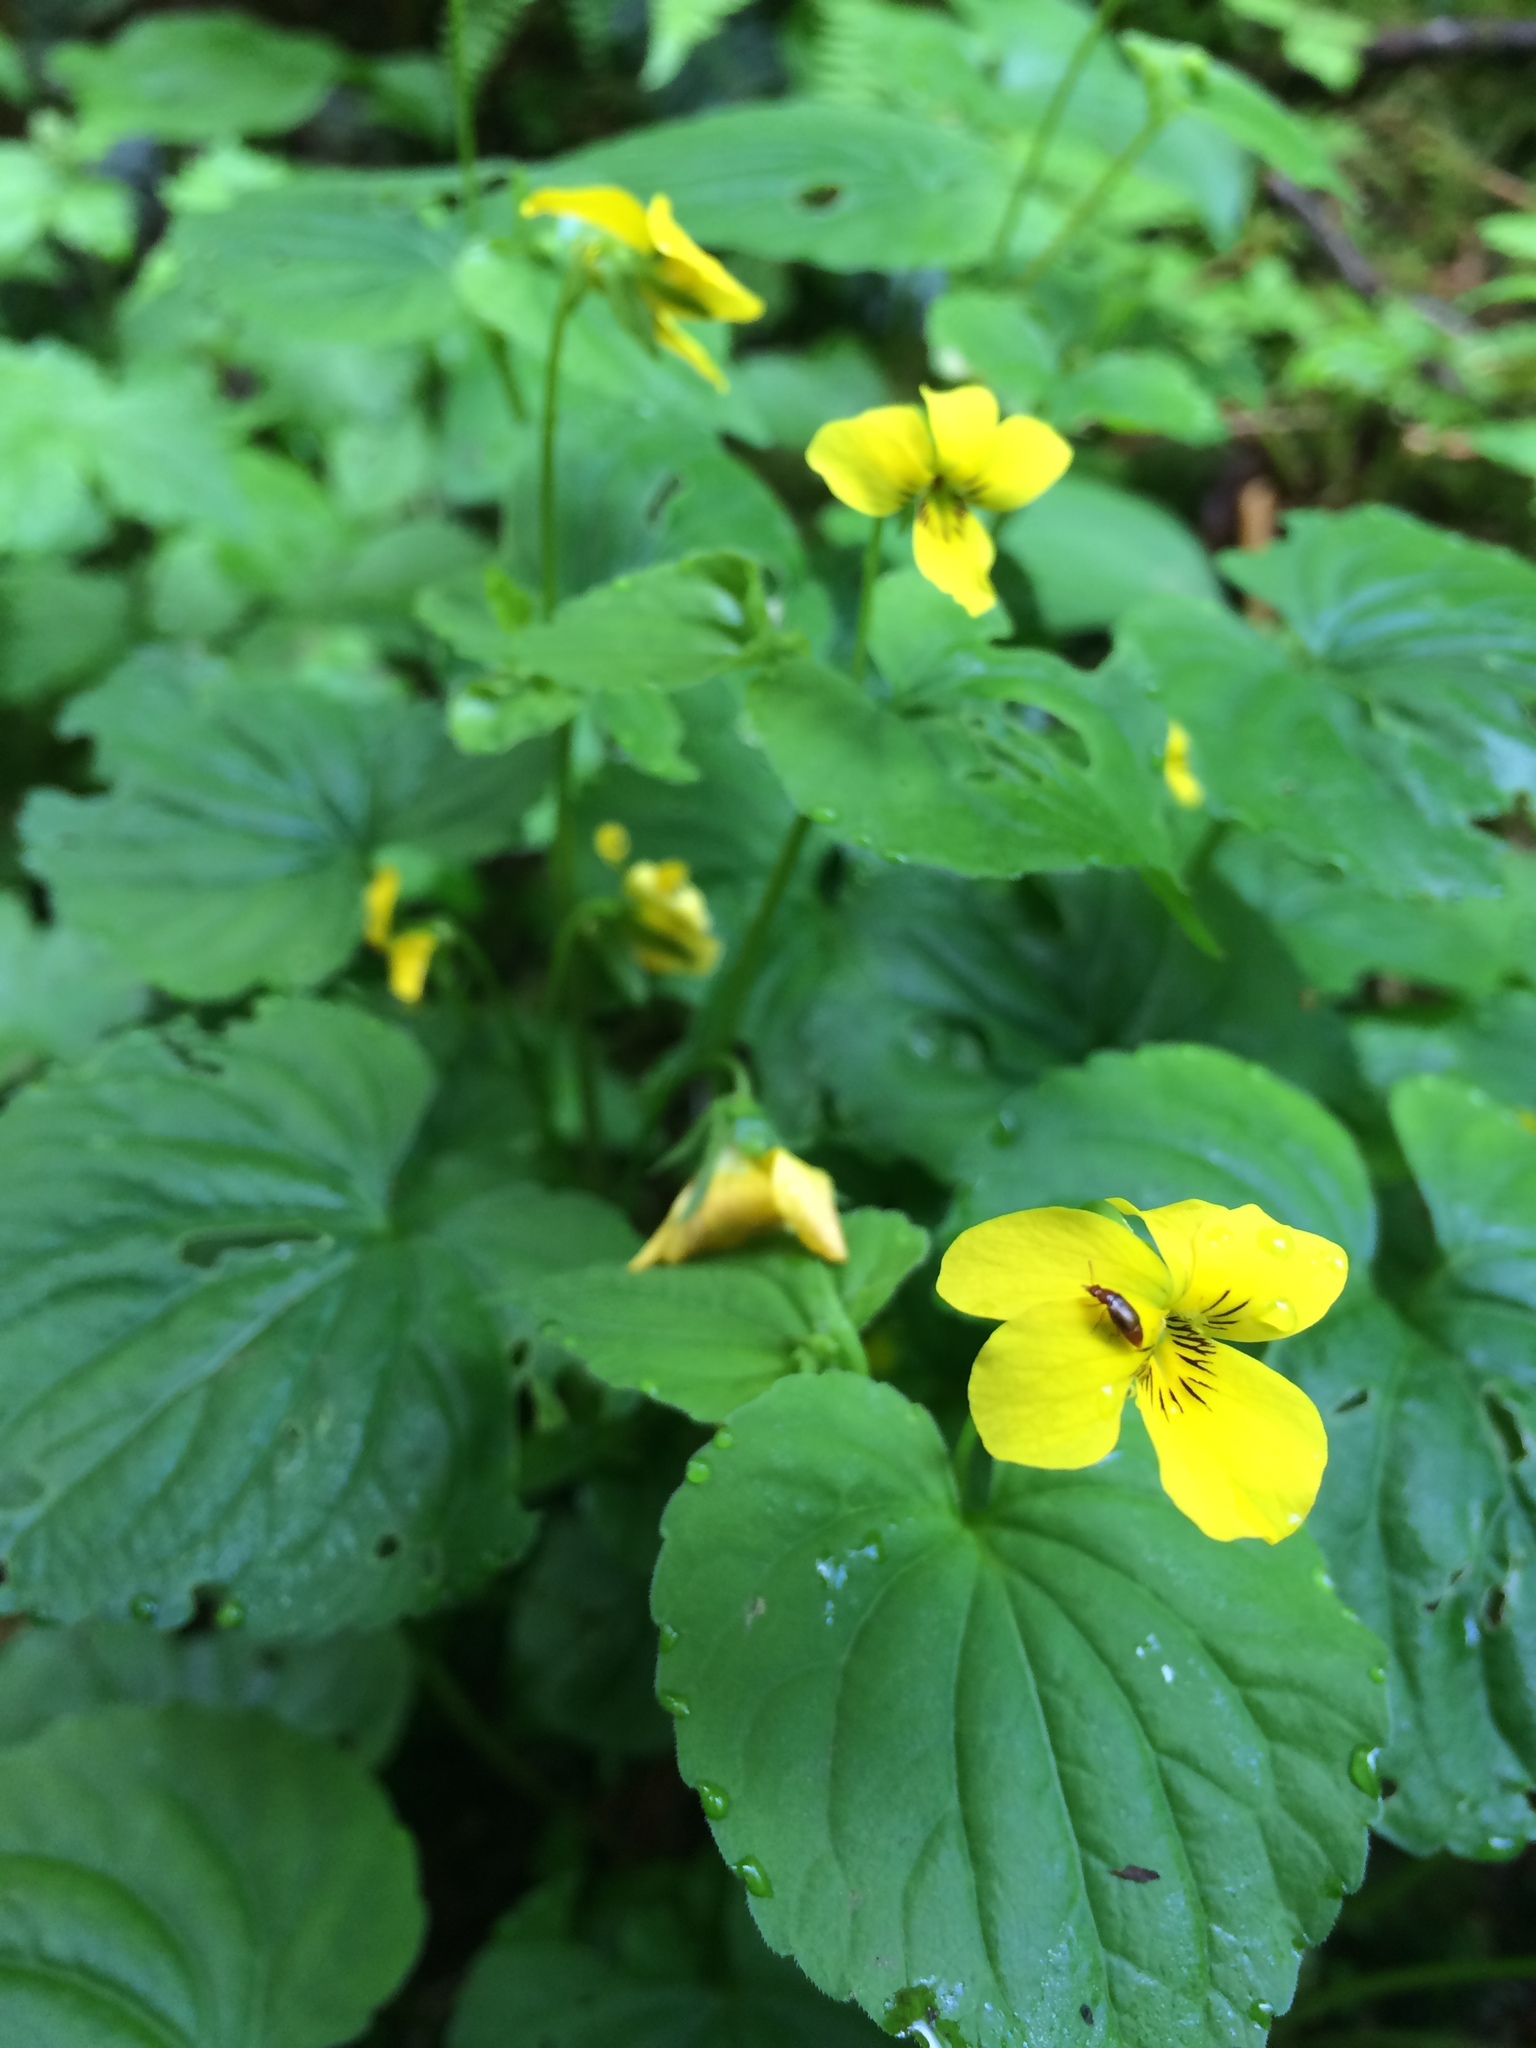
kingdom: Plantae
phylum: Tracheophyta
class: Magnoliopsida
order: Malpighiales
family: Violaceae
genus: Viola
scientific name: Viola glabella
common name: Stream violet
